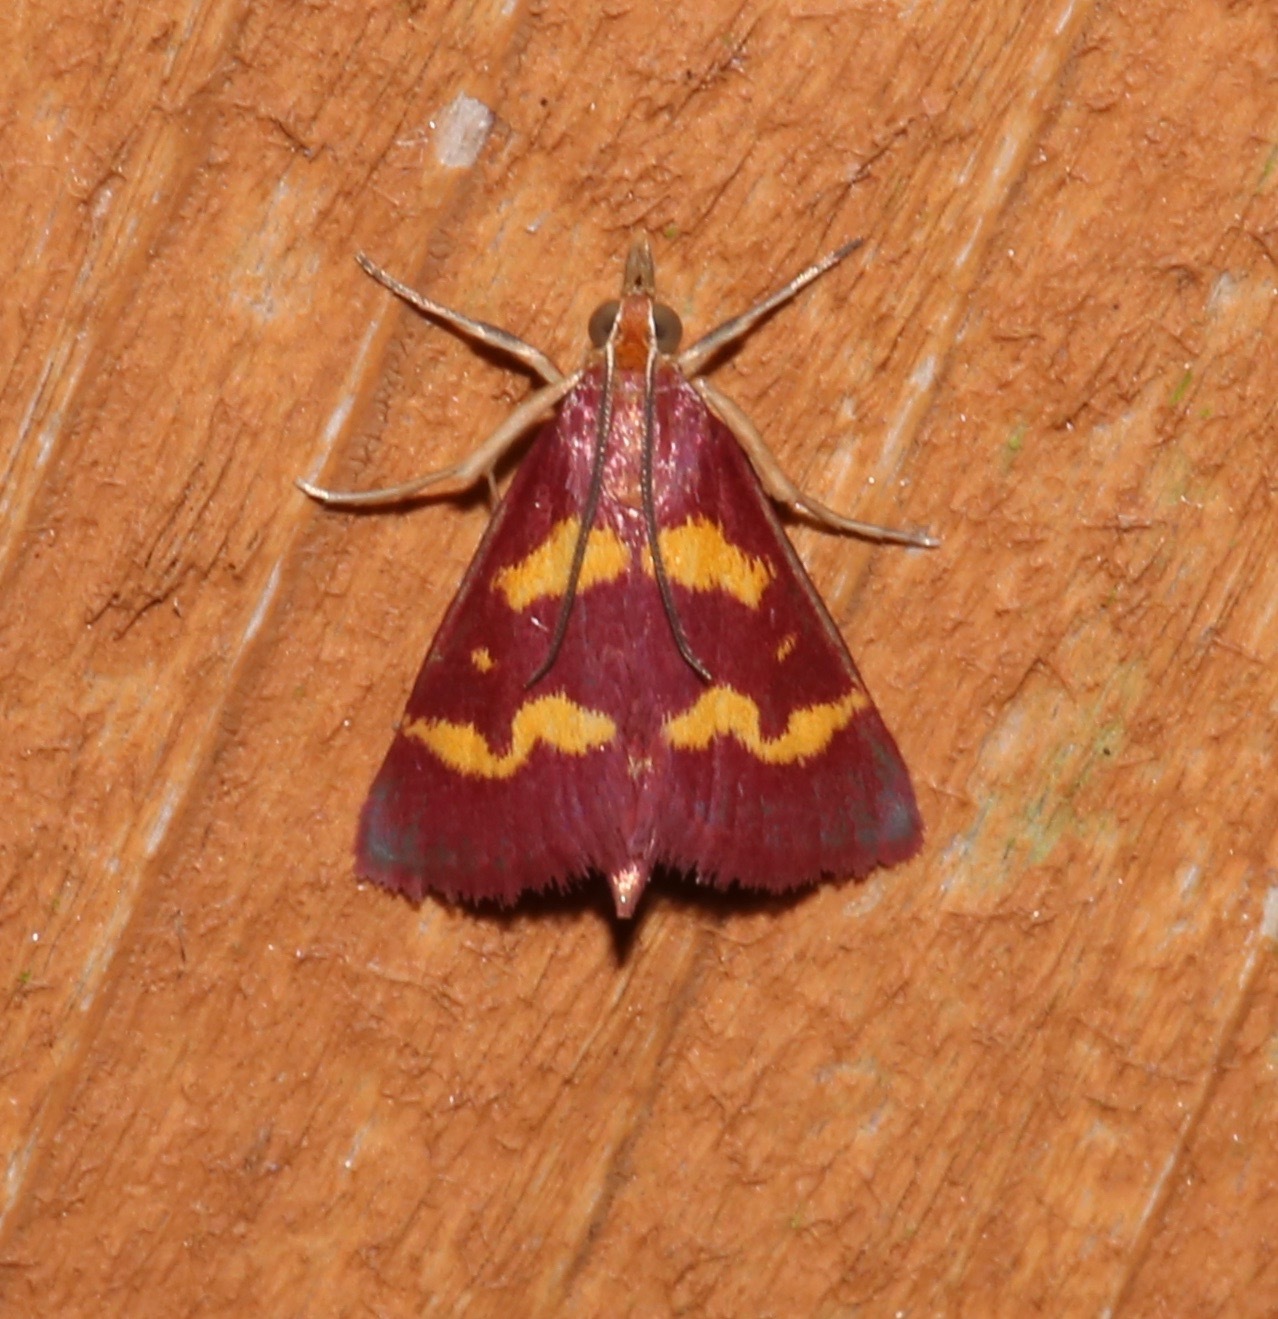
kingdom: Animalia
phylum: Arthropoda
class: Insecta
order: Lepidoptera
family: Crambidae
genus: Pyrausta
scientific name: Pyrausta tyralis
